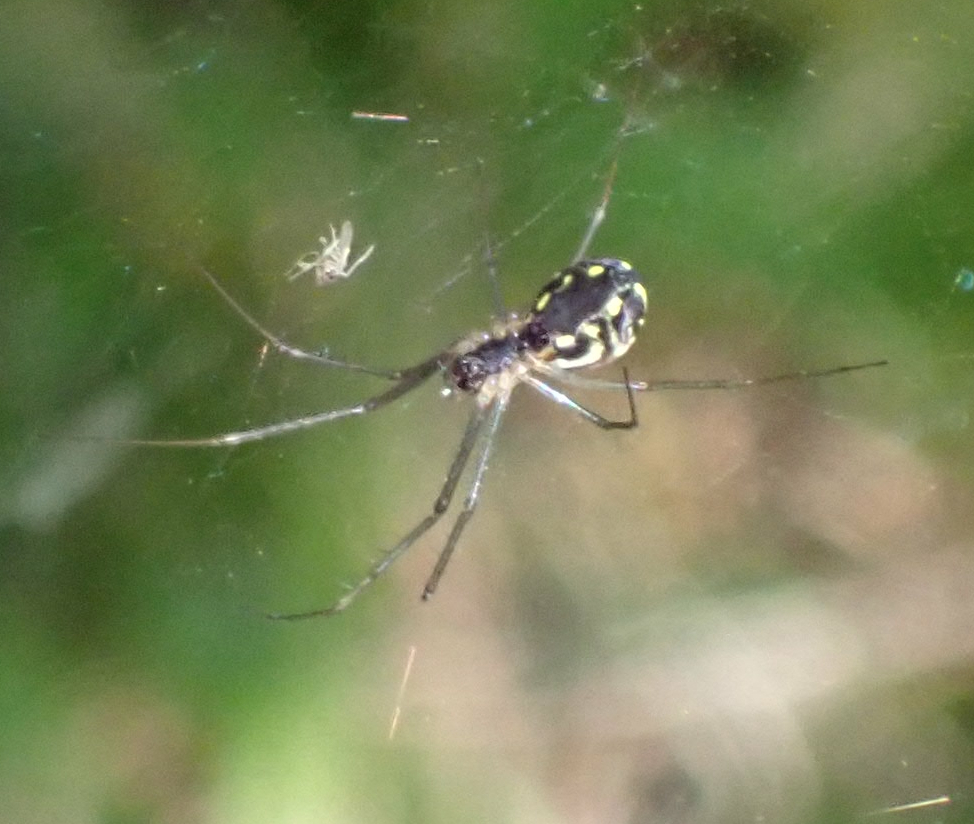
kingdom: Animalia
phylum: Arthropoda
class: Arachnida
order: Araneae
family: Linyphiidae
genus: Neriene
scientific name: Neriene radiata
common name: Filmy dome spider
